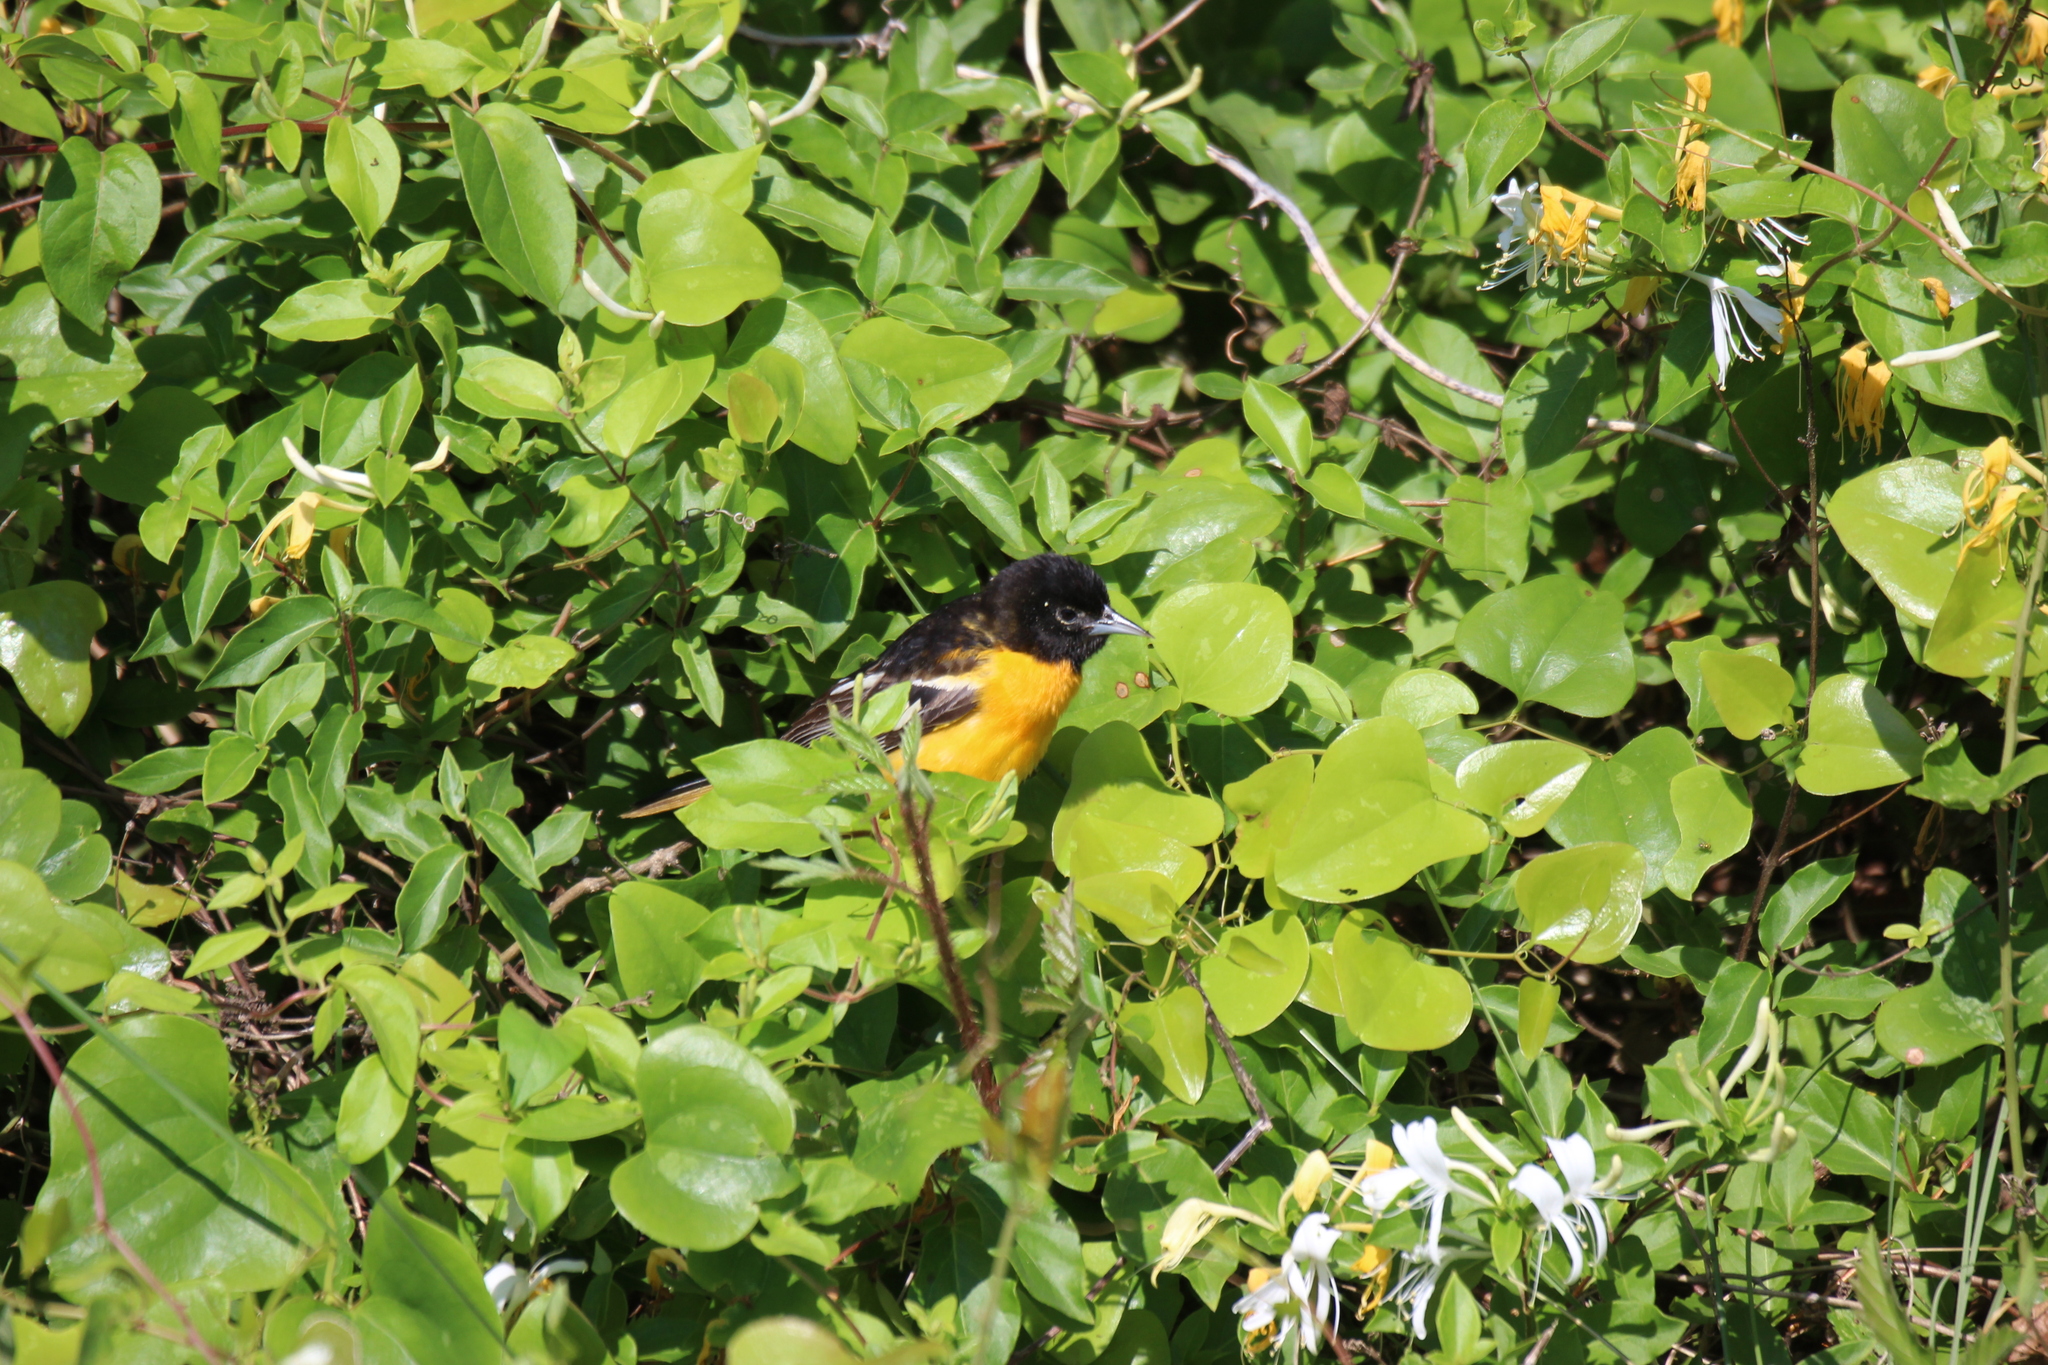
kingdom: Animalia
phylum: Chordata
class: Aves
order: Passeriformes
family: Icteridae
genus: Icterus
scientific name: Icterus galbula
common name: Baltimore oriole
